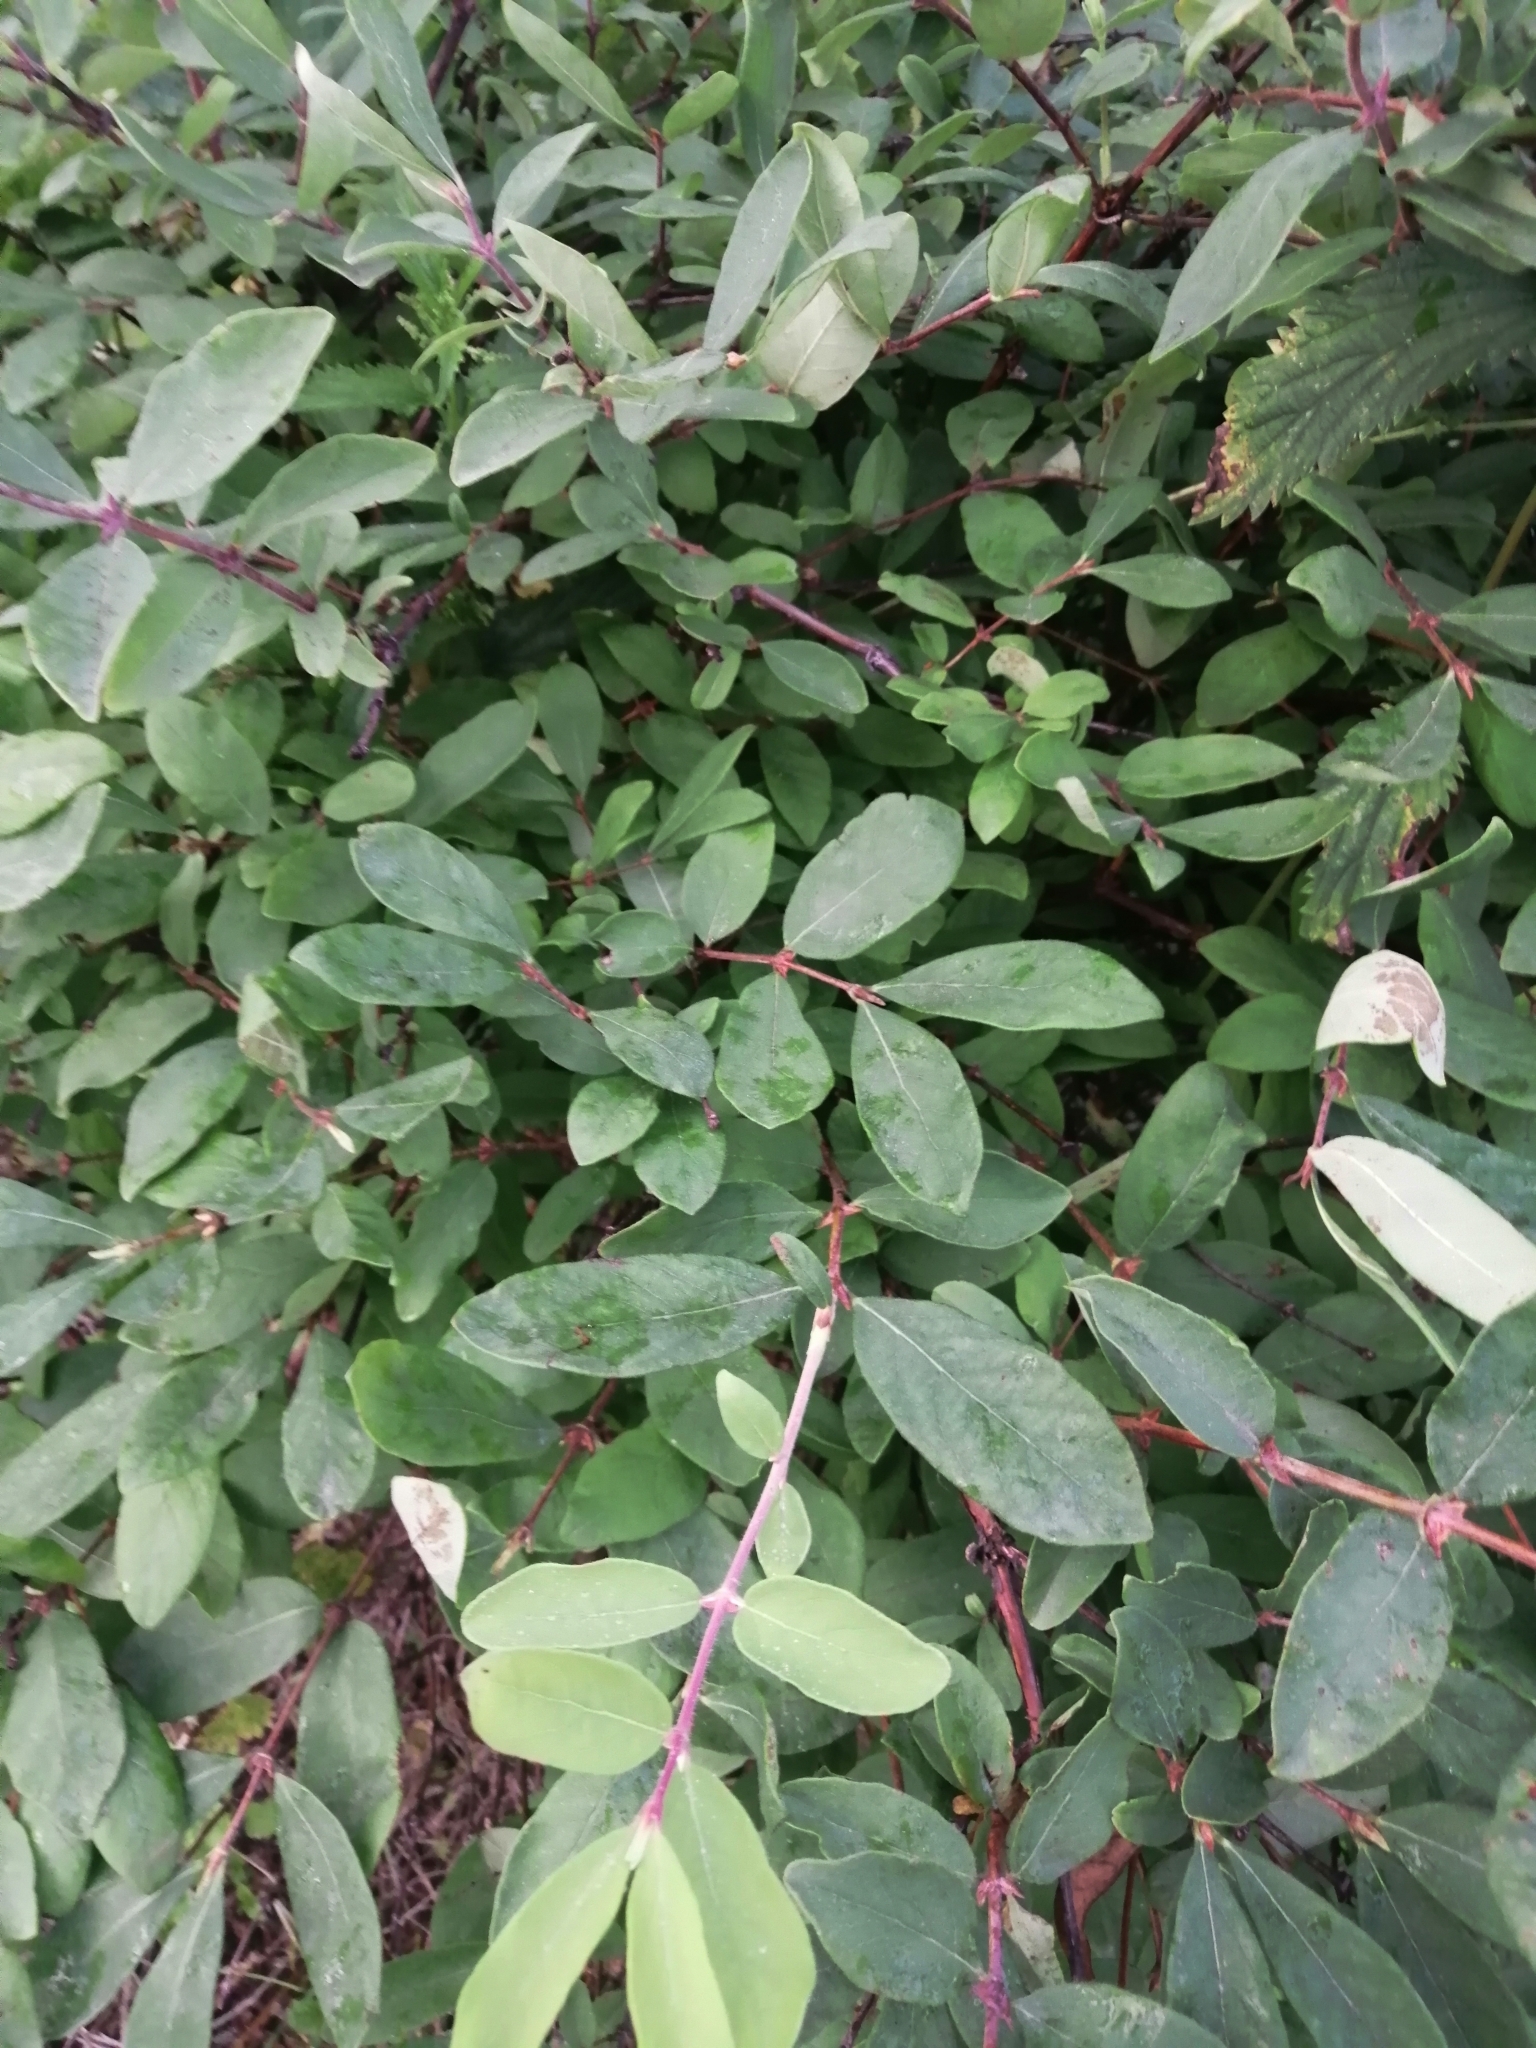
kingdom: Plantae
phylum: Tracheophyta
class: Magnoliopsida
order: Dipsacales
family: Caprifoliaceae
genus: Lonicera
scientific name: Lonicera caerulea
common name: Blue honeysuckle
